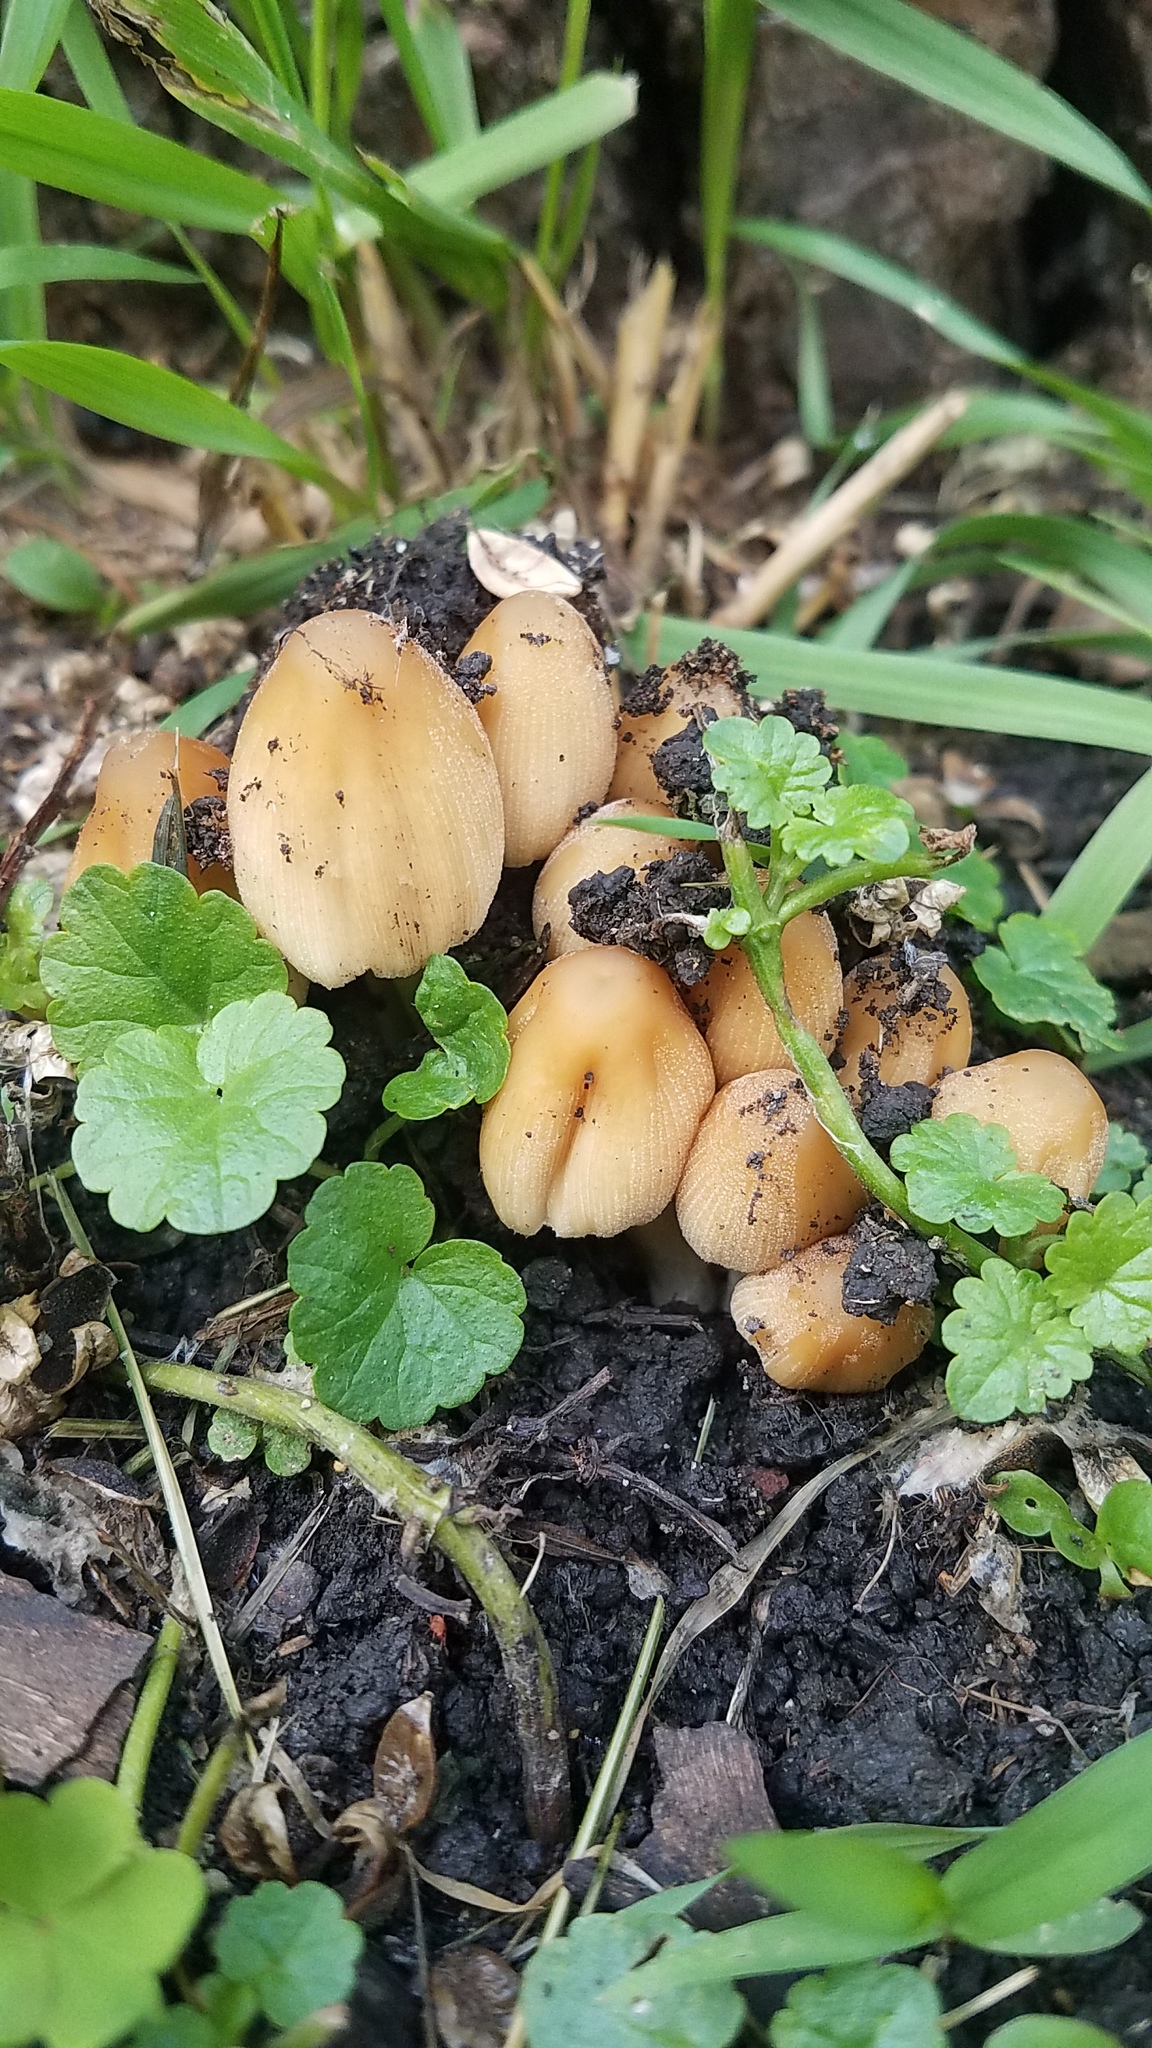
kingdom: Fungi
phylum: Basidiomycota
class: Agaricomycetes
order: Agaricales
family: Psathyrellaceae
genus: Coprinellus
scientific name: Coprinellus micaceus
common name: Glistening ink-cap
